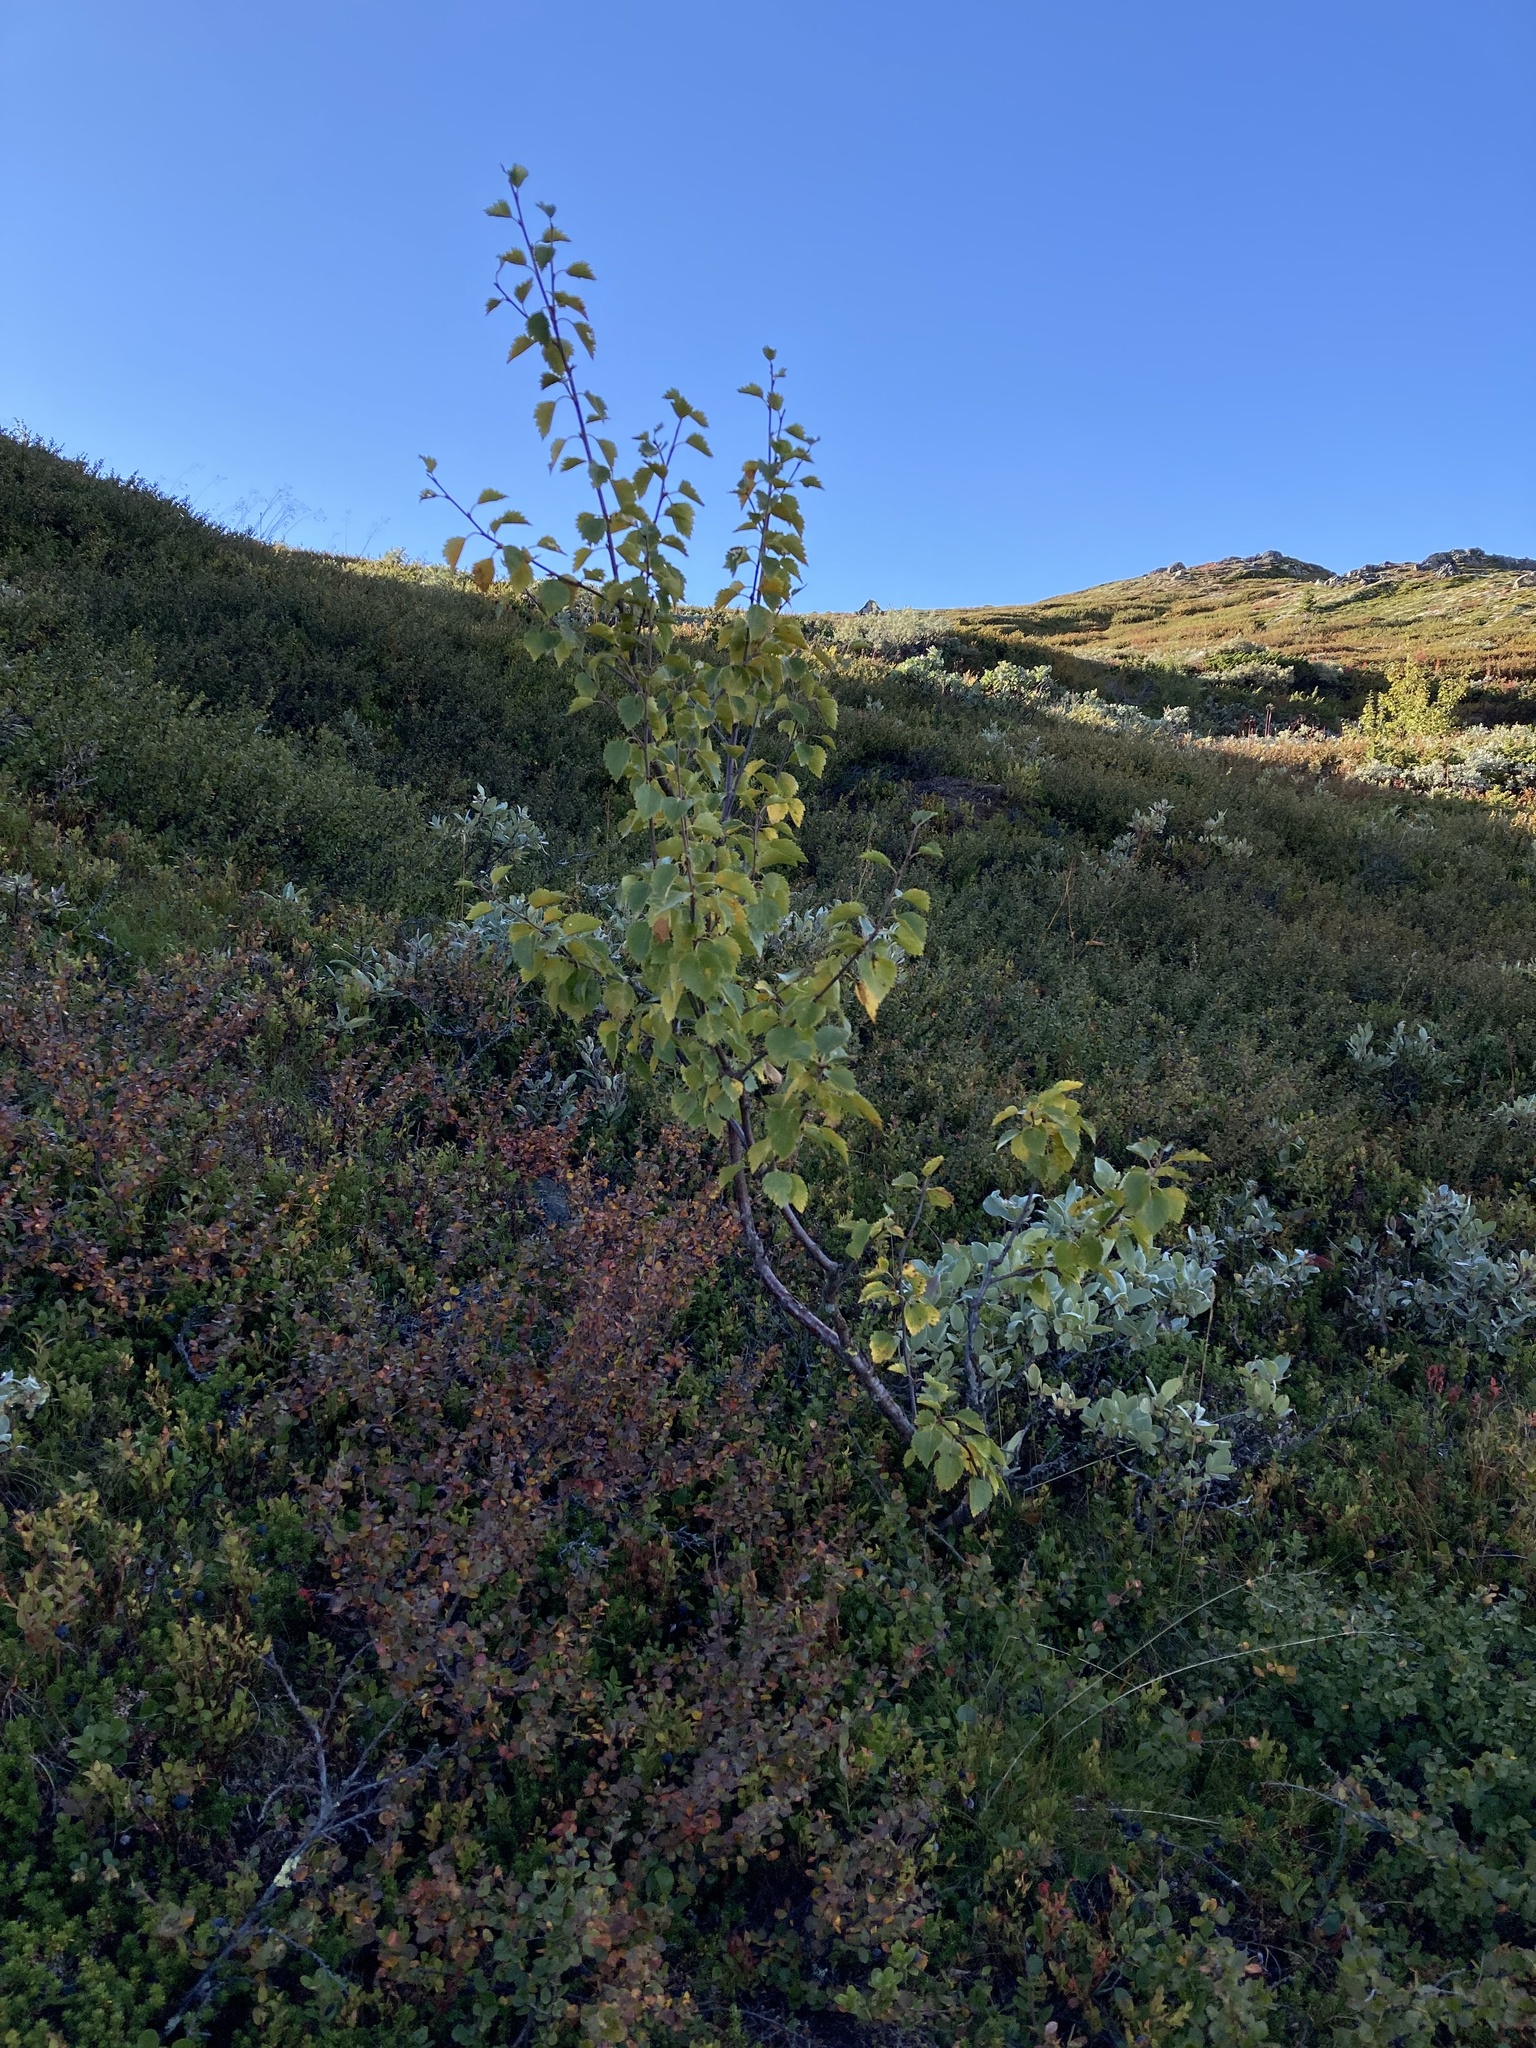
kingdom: Plantae
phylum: Tracheophyta
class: Magnoliopsida
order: Fagales
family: Betulaceae
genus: Betula
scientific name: Betula pubescens
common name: Downy birch
